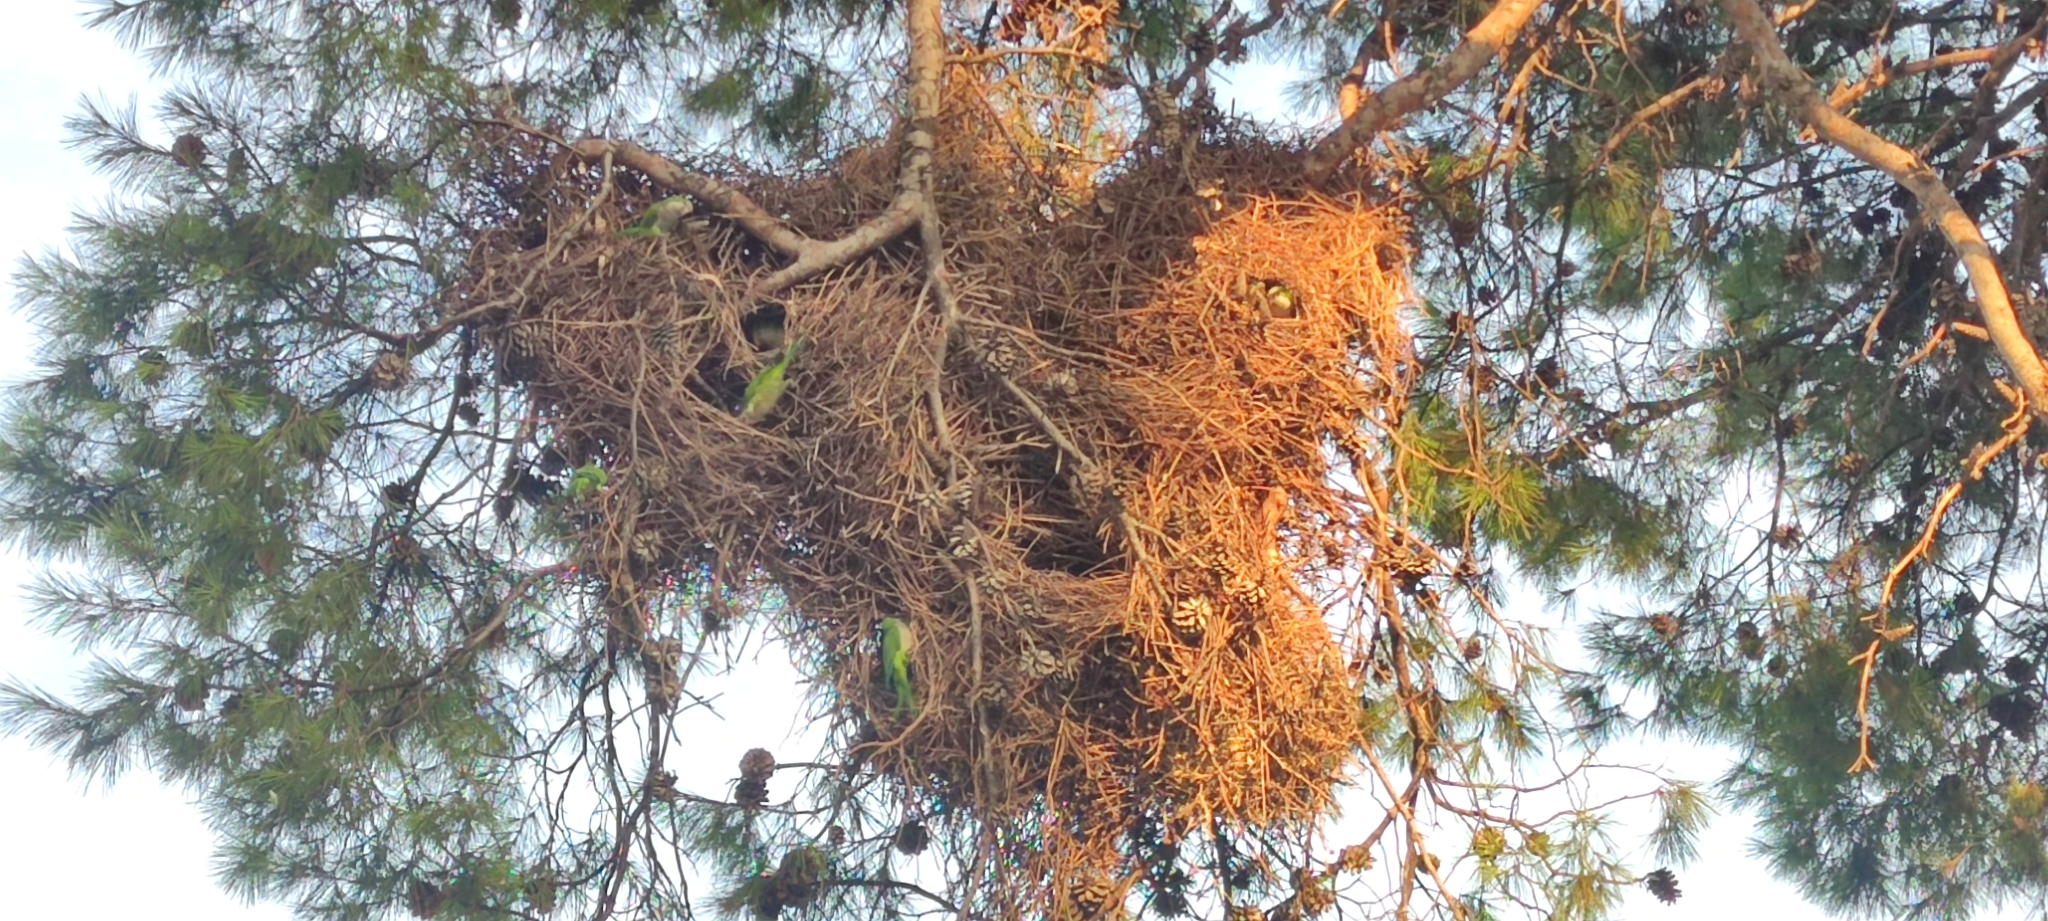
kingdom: Animalia
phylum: Chordata
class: Aves
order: Psittaciformes
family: Psittacidae
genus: Myiopsitta
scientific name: Myiopsitta monachus
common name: Monk parakeet
